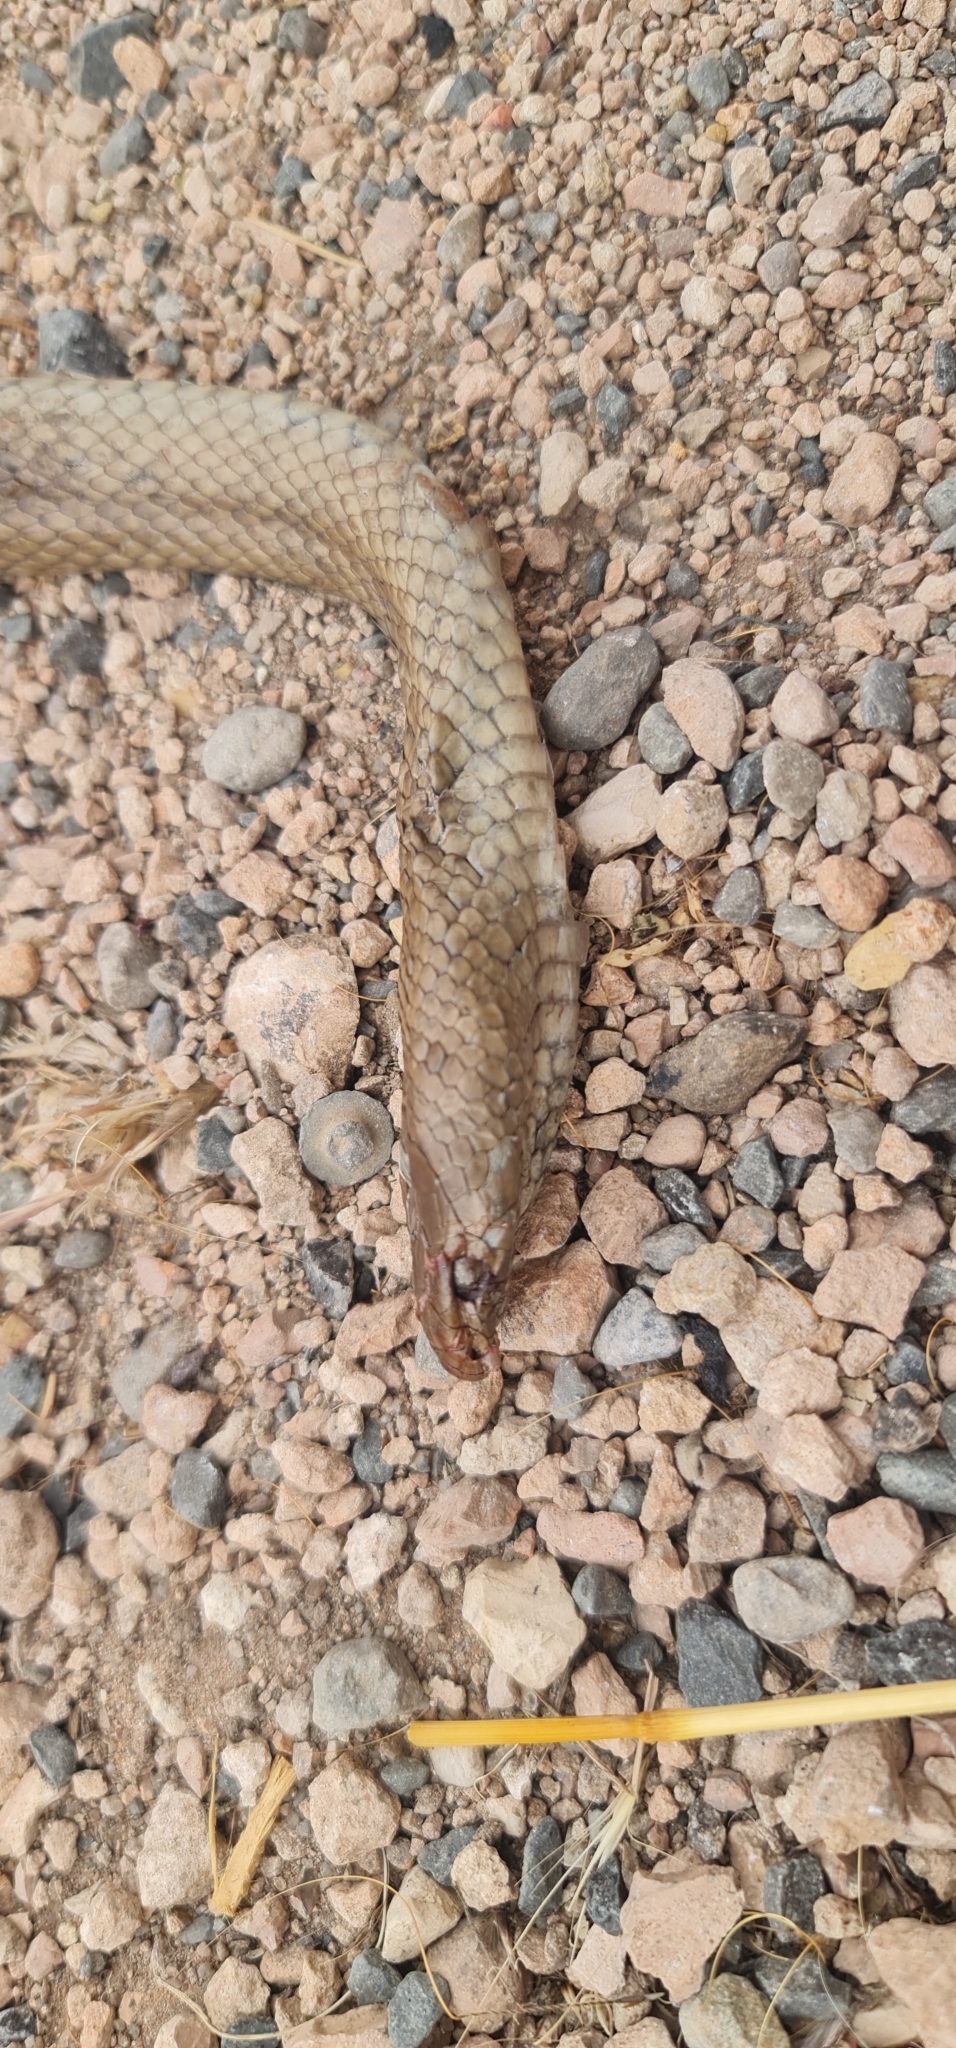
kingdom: Animalia
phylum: Chordata
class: Squamata
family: Elapidae
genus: Pseudonaja
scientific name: Pseudonaja textilis
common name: Eastern brown snake
